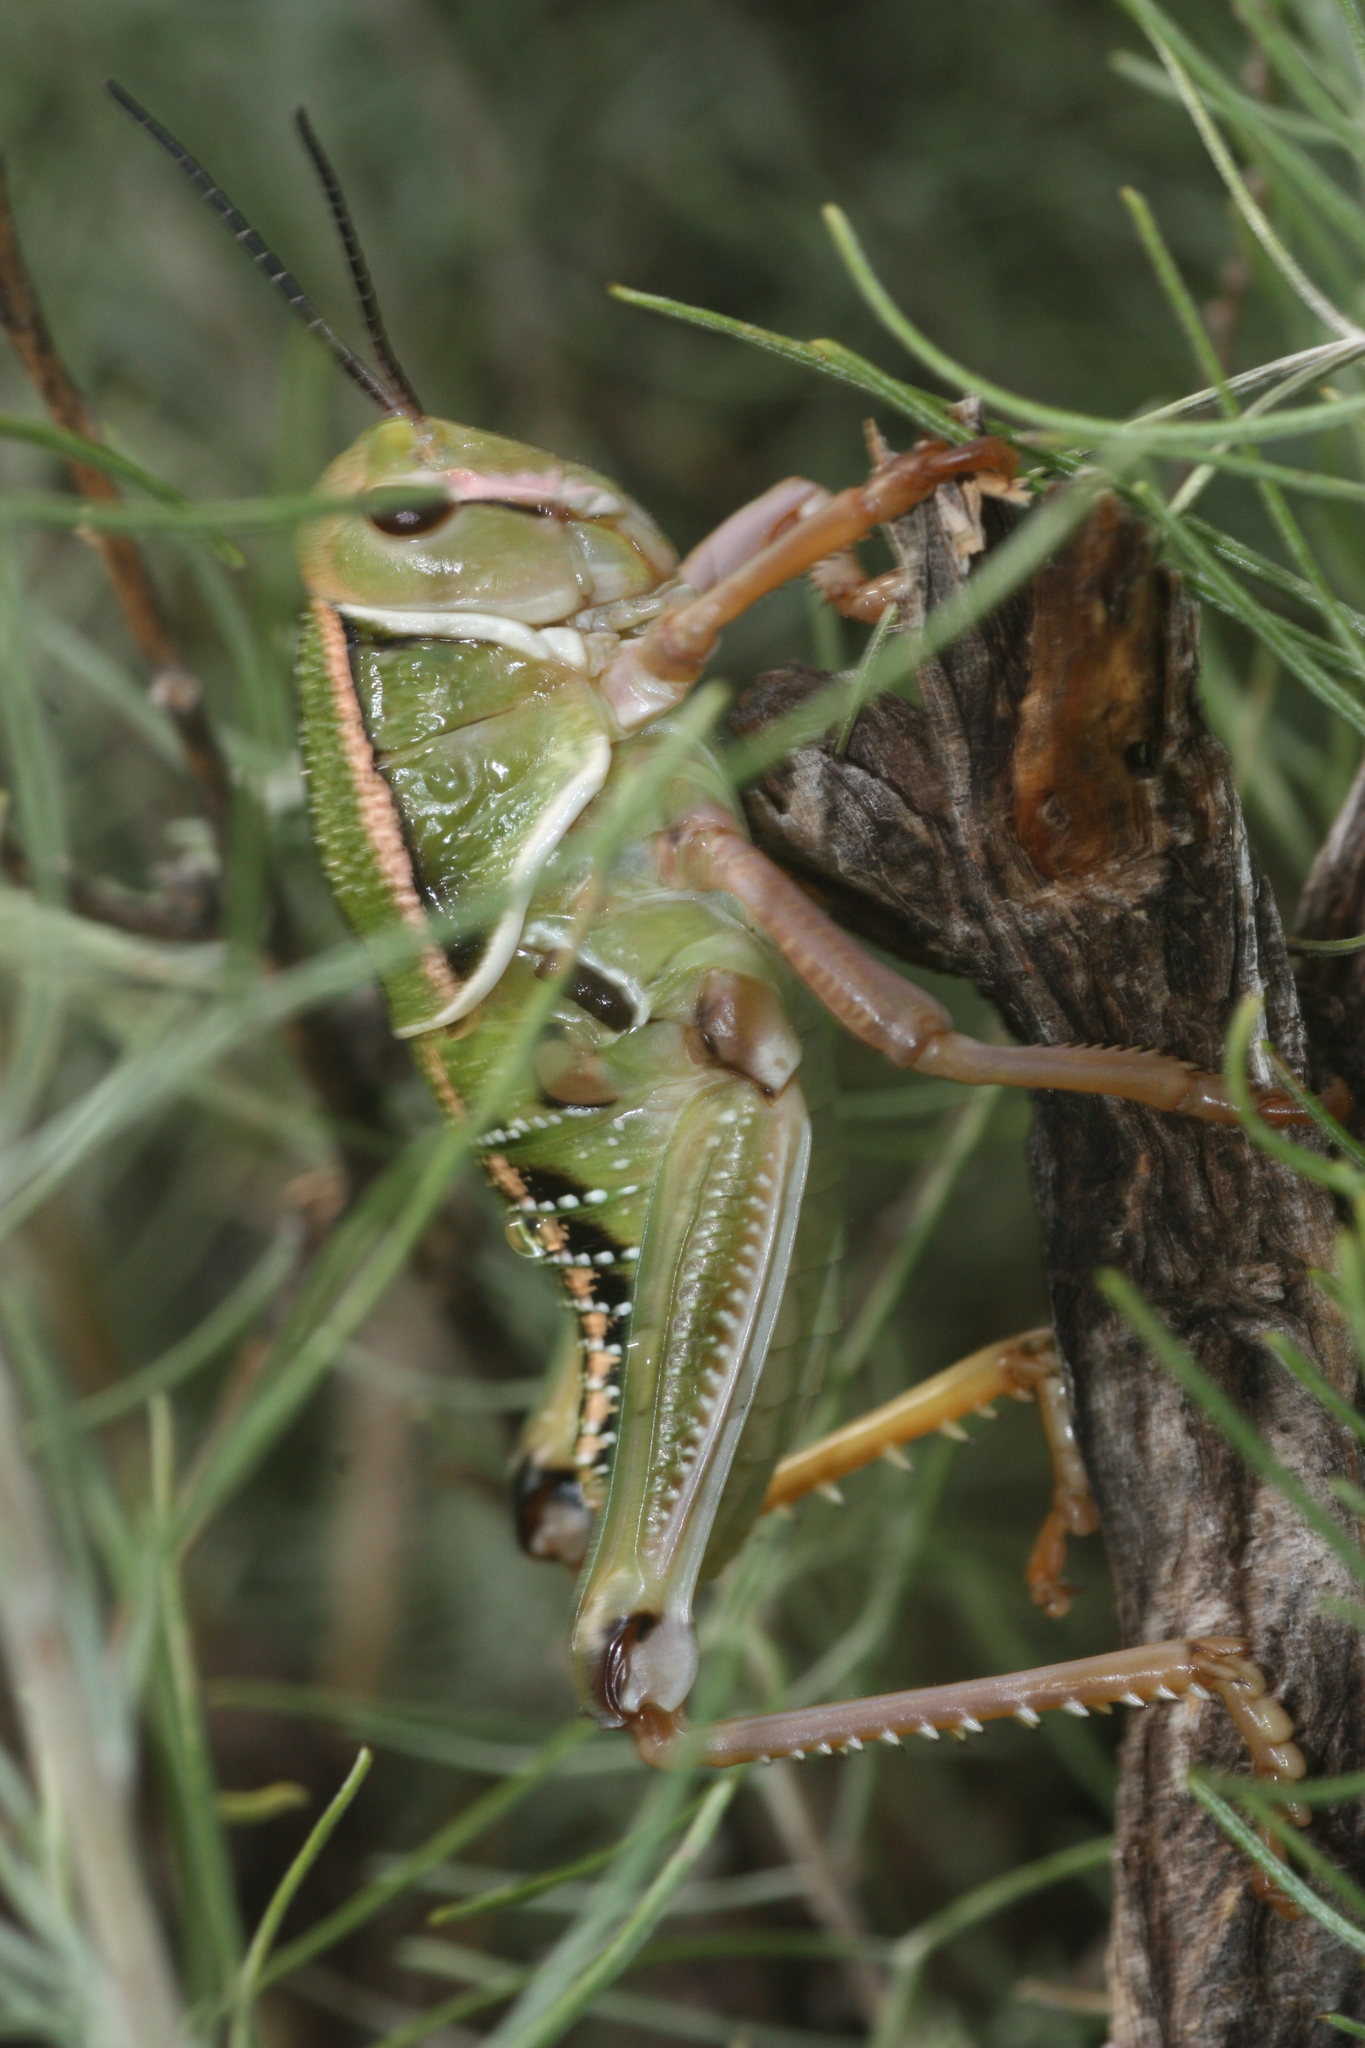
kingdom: Animalia
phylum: Arthropoda
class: Insecta
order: Orthoptera
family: Romaleidae
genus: Brachystola
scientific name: Brachystola magna
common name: Plains lubber grasshopper
